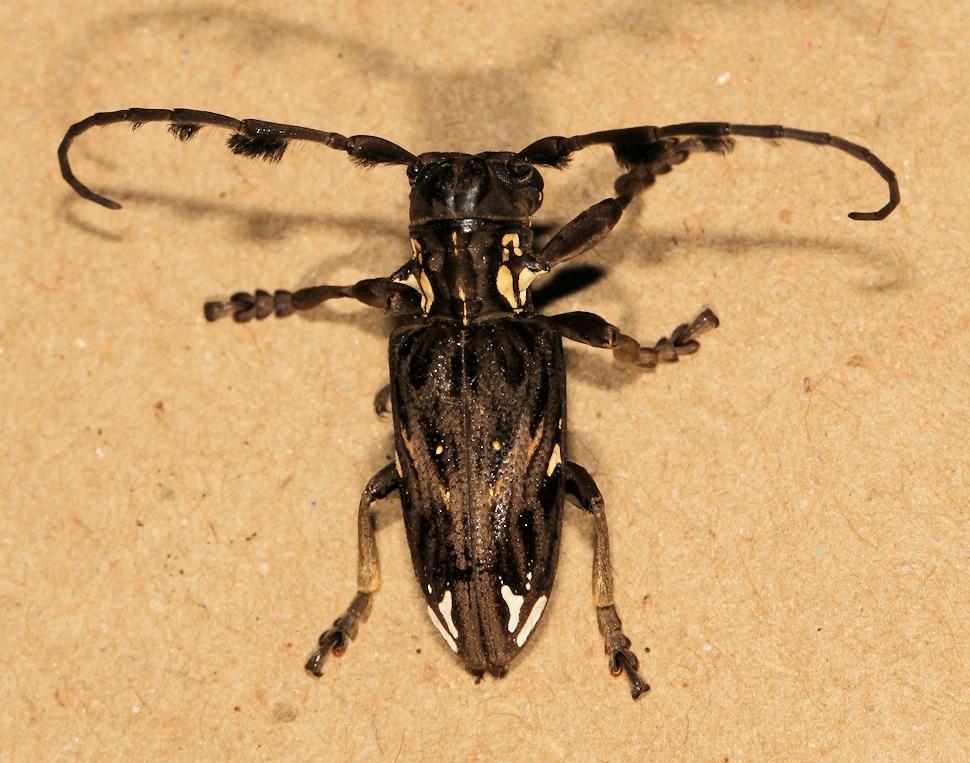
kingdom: Animalia
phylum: Arthropoda
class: Insecta
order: Coleoptera
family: Cerambycidae
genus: Mallonia
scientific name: Mallonia australis
